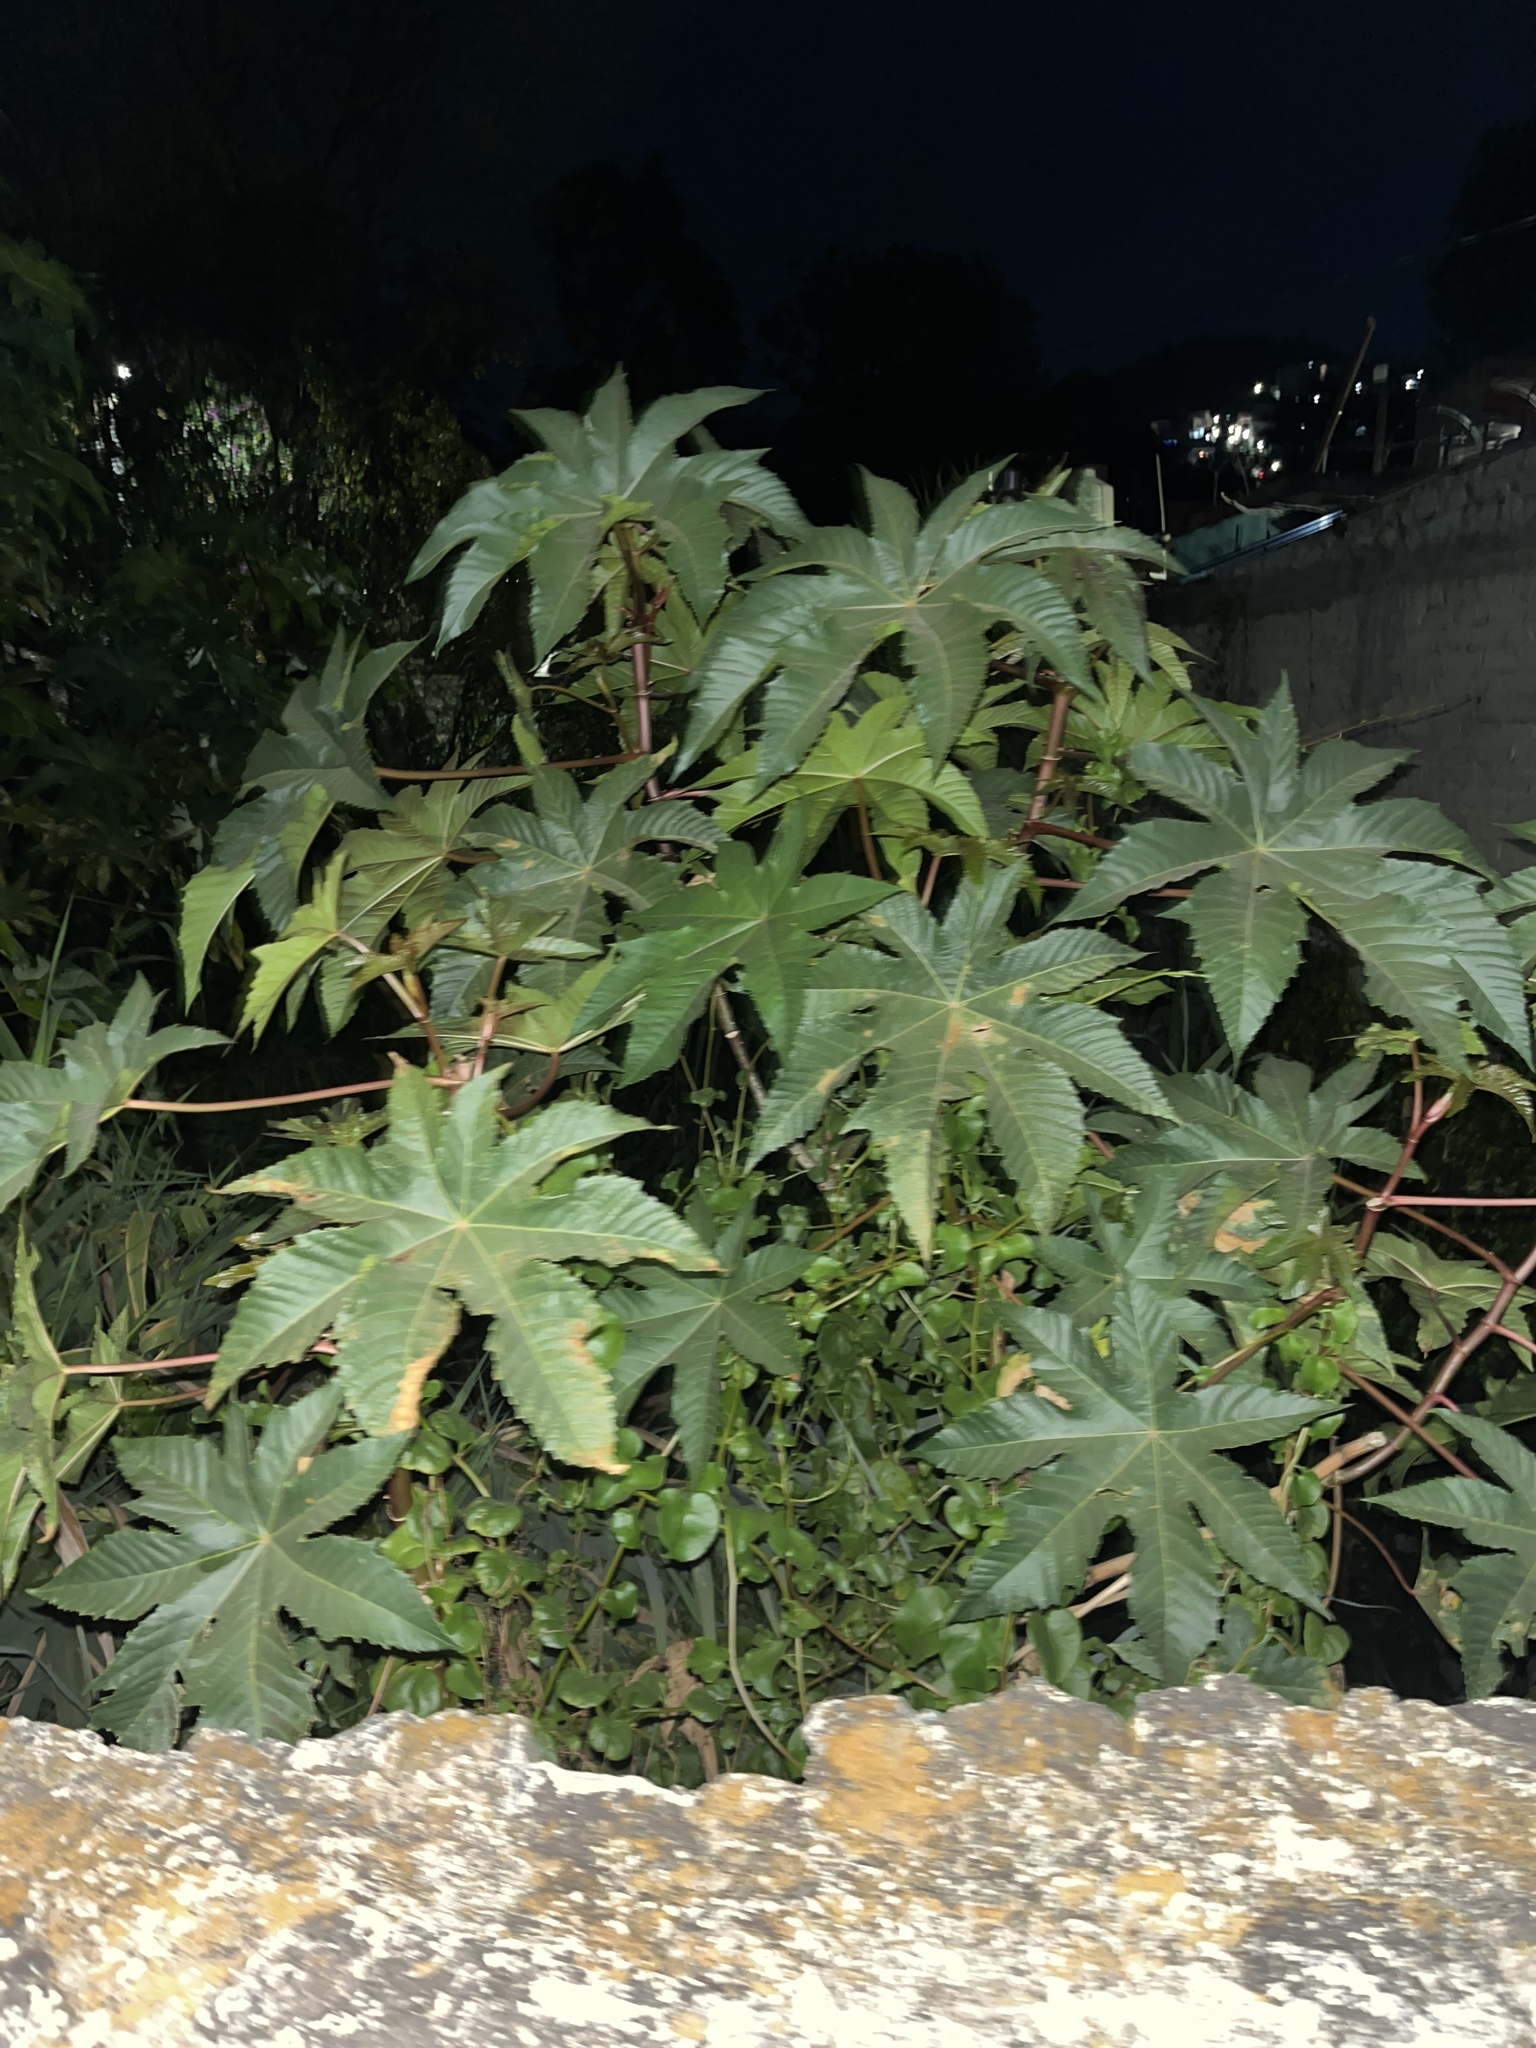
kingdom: Plantae
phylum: Tracheophyta
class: Magnoliopsida
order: Malpighiales
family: Euphorbiaceae
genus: Ricinus
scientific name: Ricinus communis
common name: Castor-oil-plant
